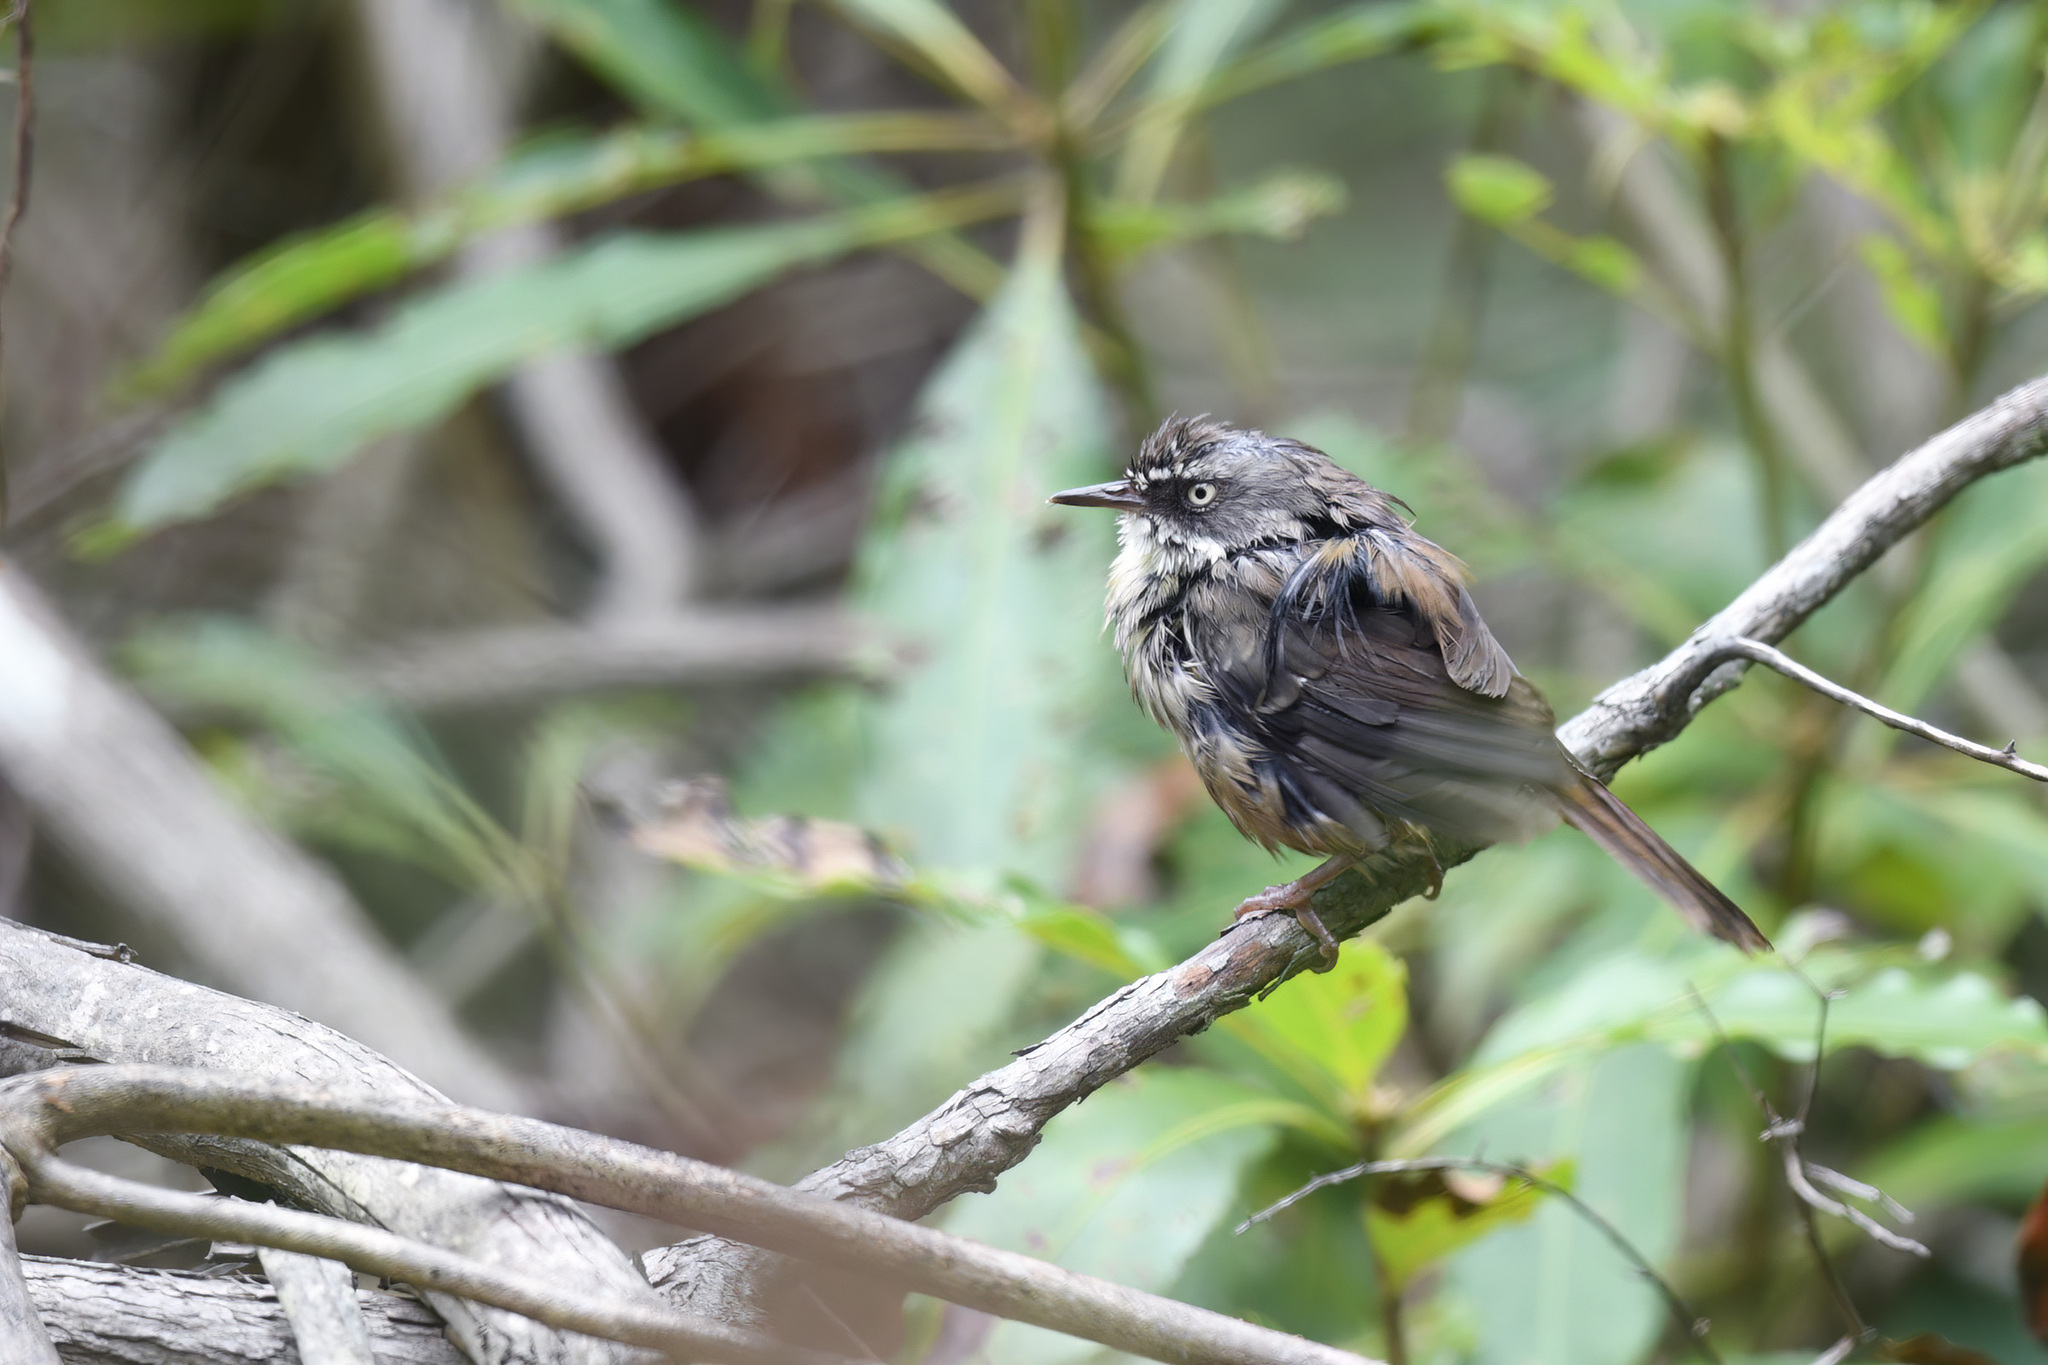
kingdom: Animalia
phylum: Chordata
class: Aves
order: Passeriformes
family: Acanthizidae
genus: Sericornis
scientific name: Sericornis frontalis
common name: White-browed scrubwren
